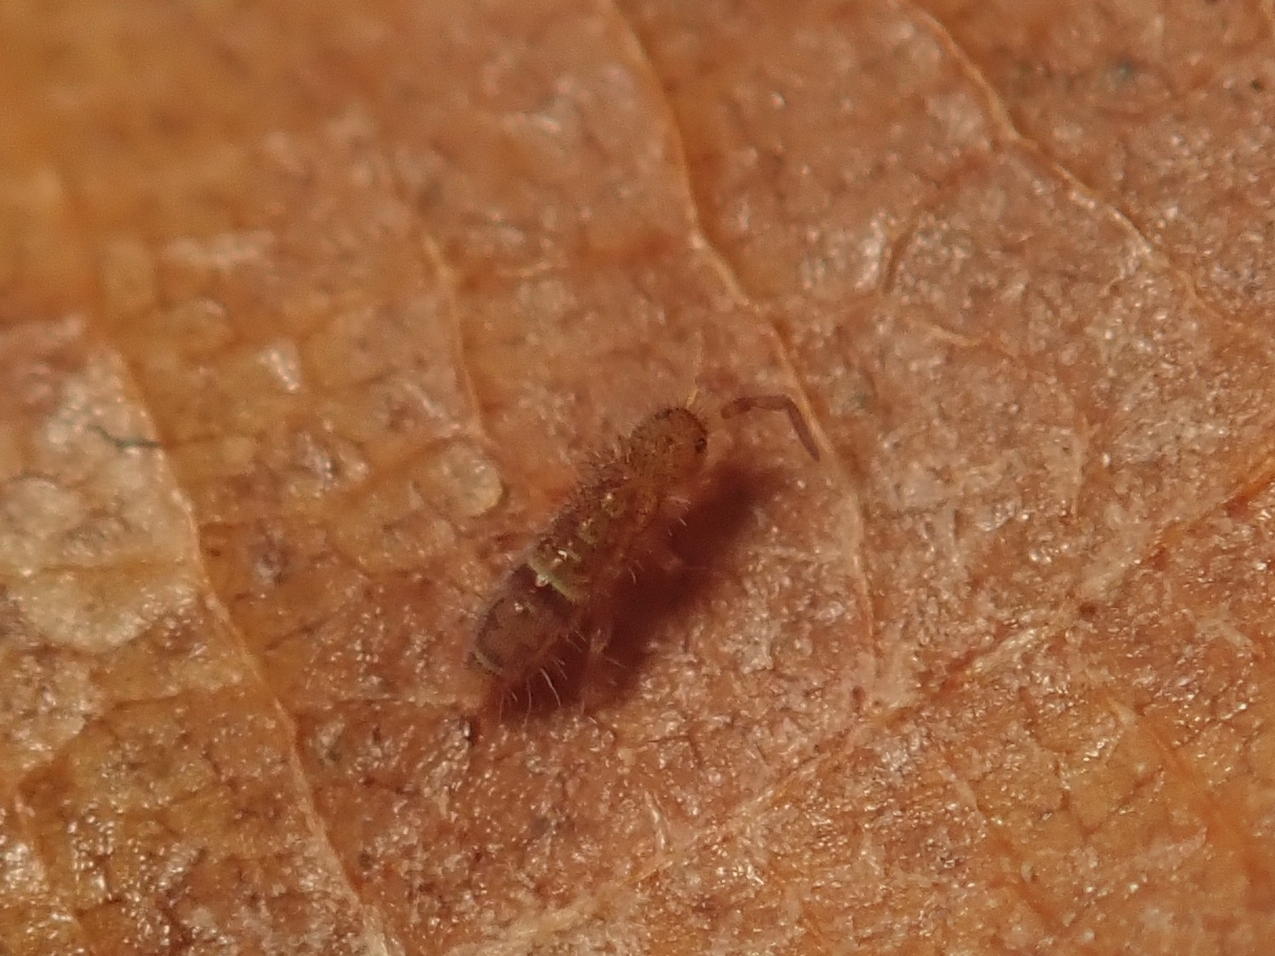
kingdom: Animalia
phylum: Arthropoda
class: Collembola
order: Entomobryomorpha
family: Orchesellidae
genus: Orchesella
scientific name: Orchesella cincta
